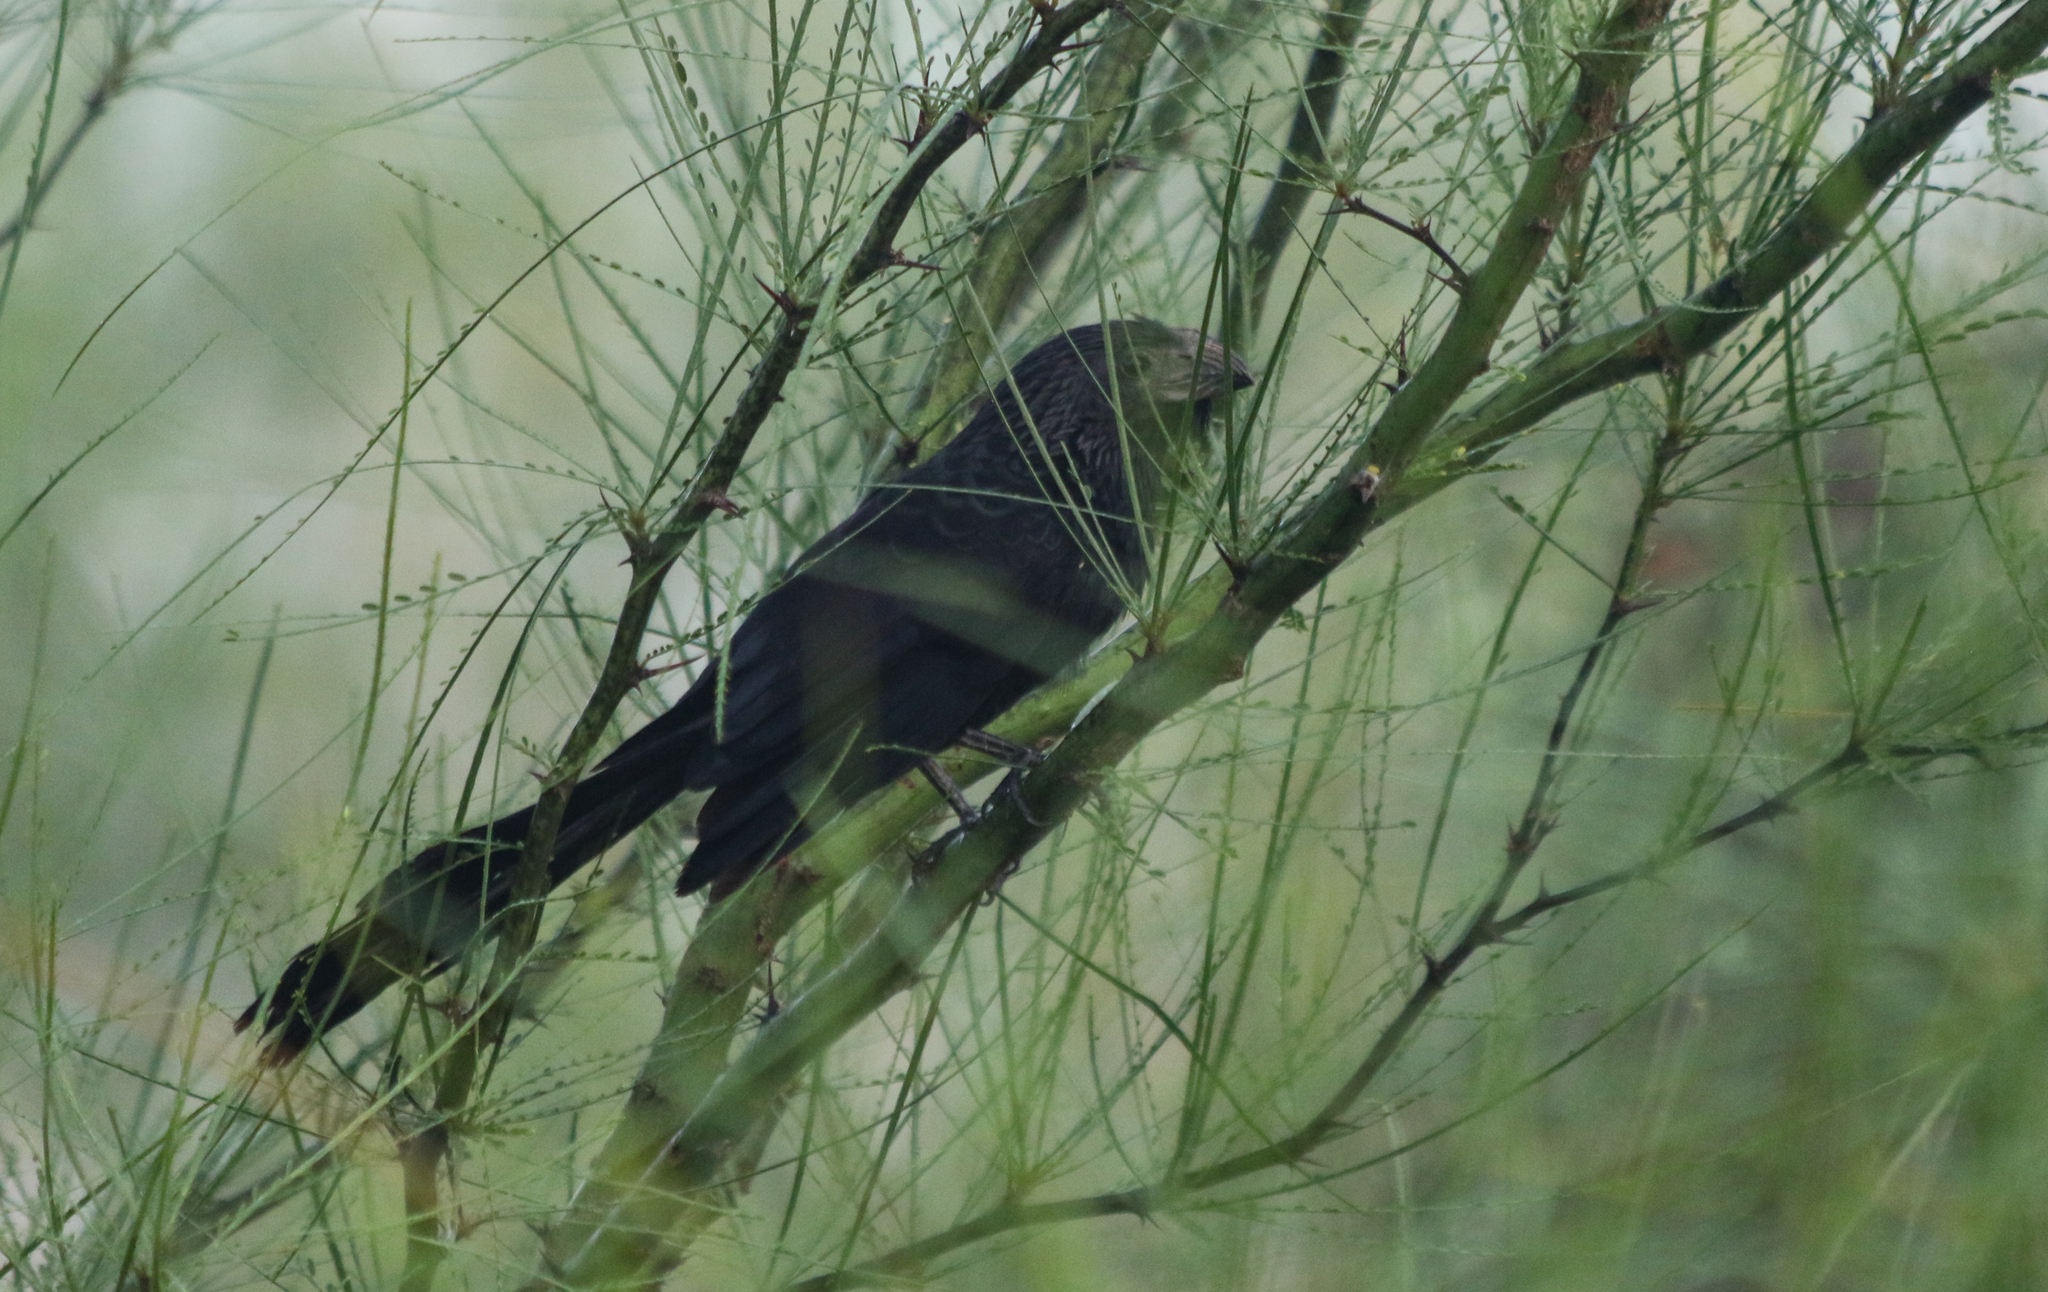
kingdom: Animalia
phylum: Chordata
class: Aves
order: Cuculiformes
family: Cuculidae
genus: Crotophaga
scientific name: Crotophaga sulcirostris
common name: Groove-billed ani
